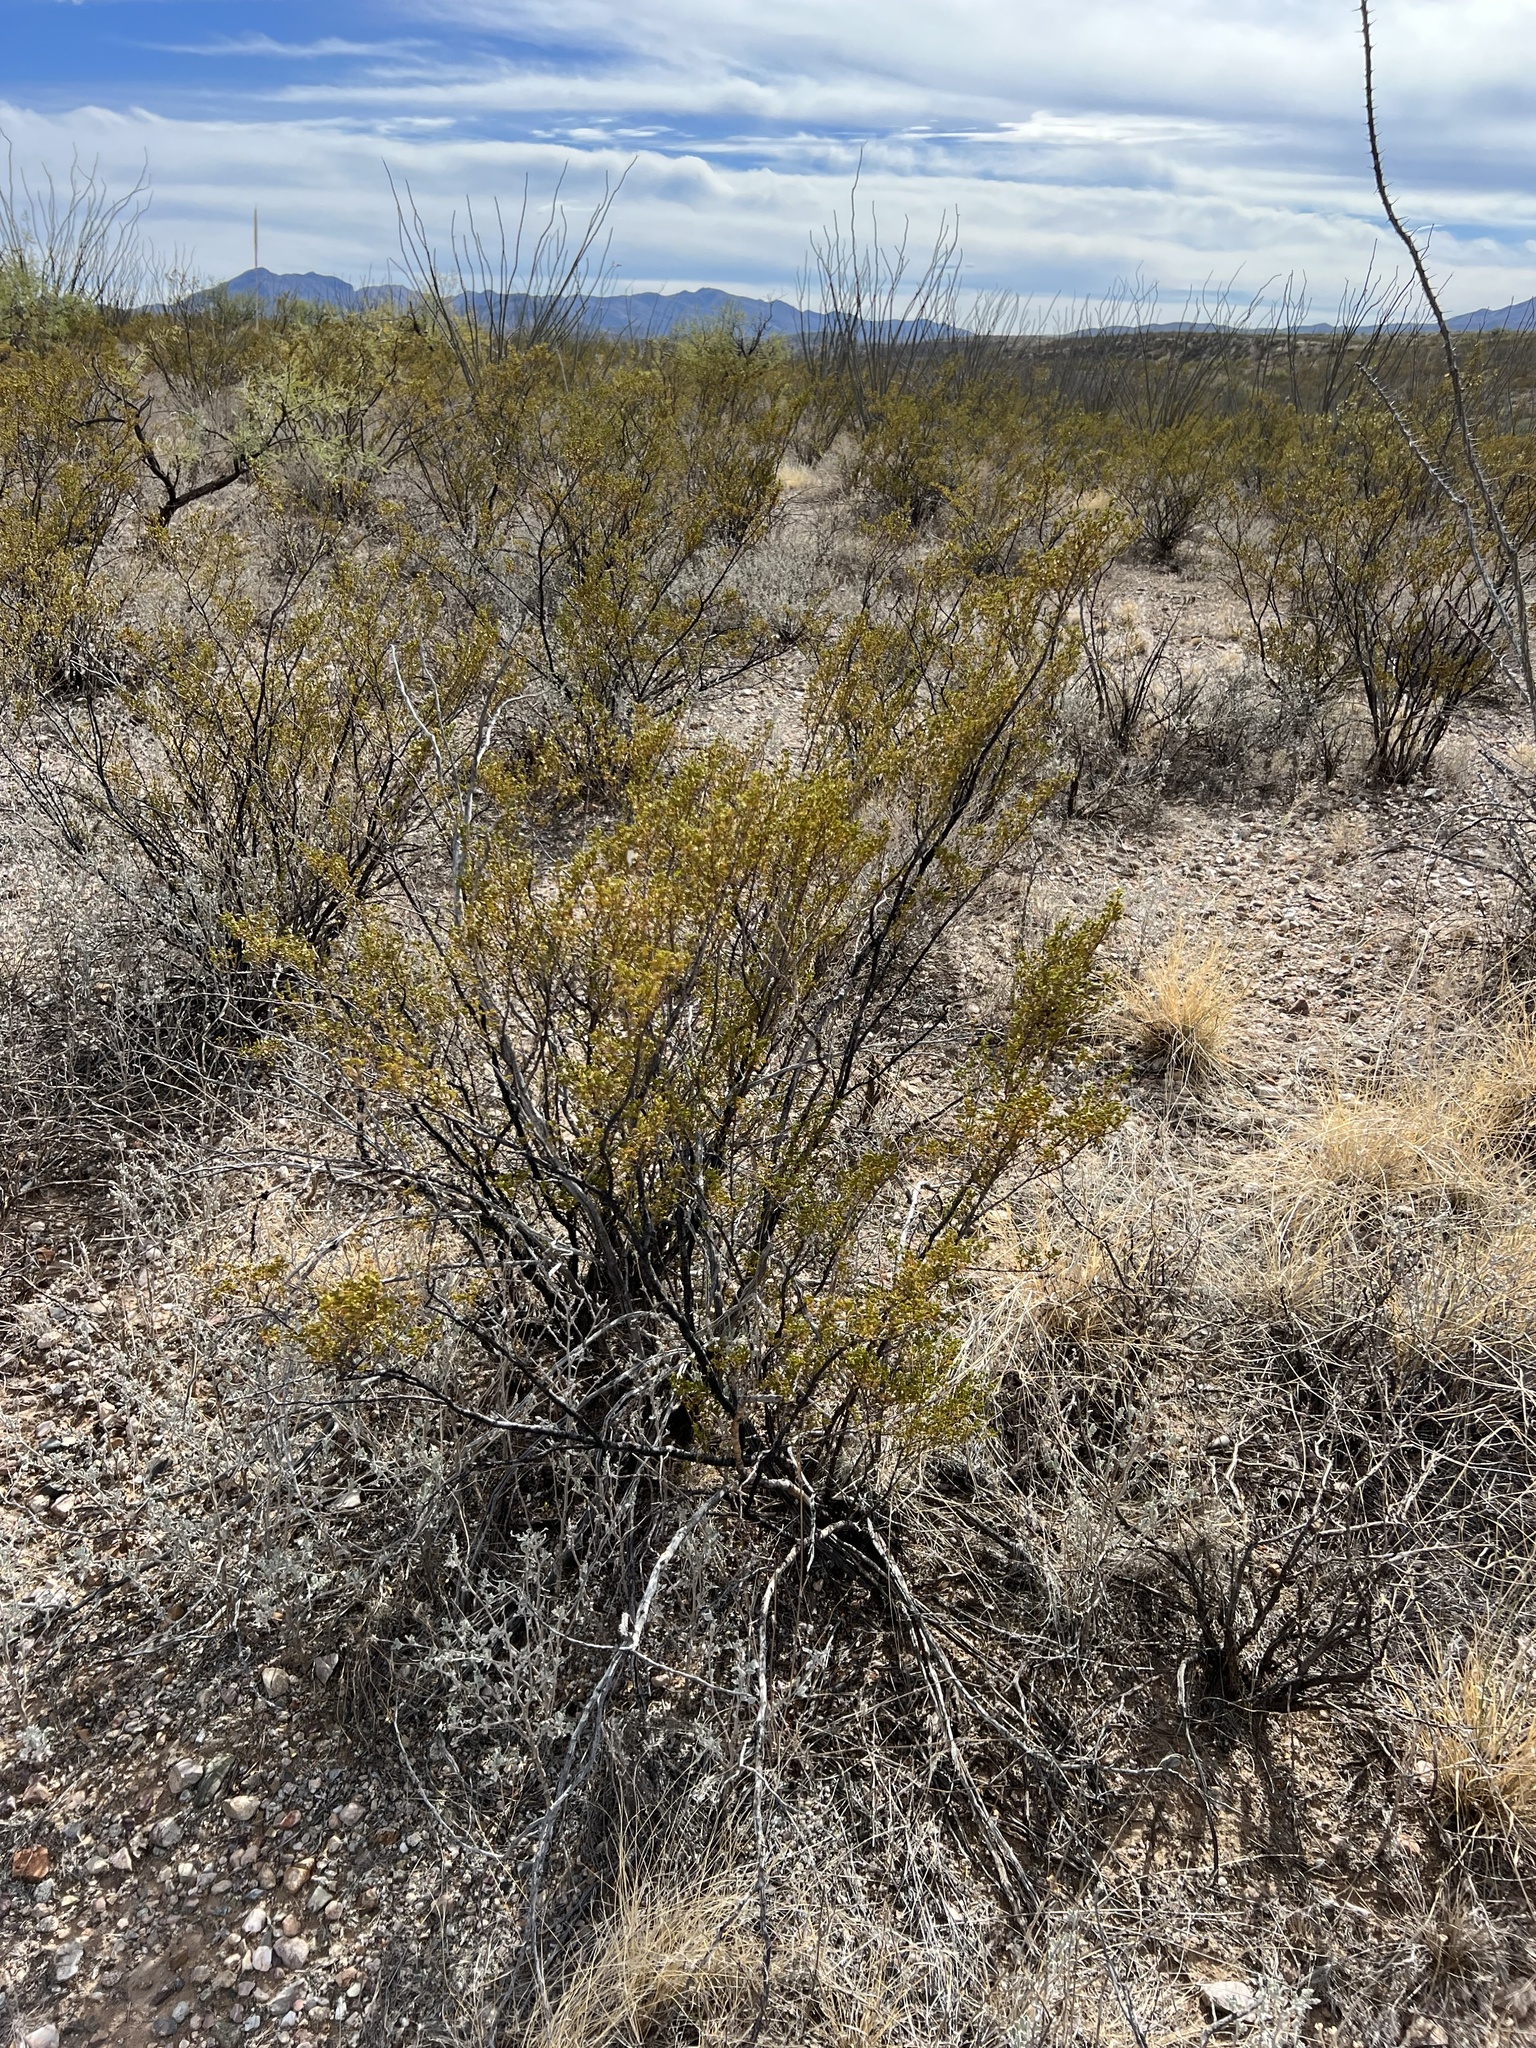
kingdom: Plantae
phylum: Tracheophyta
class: Magnoliopsida
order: Zygophyllales
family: Zygophyllaceae
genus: Larrea
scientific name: Larrea tridentata
